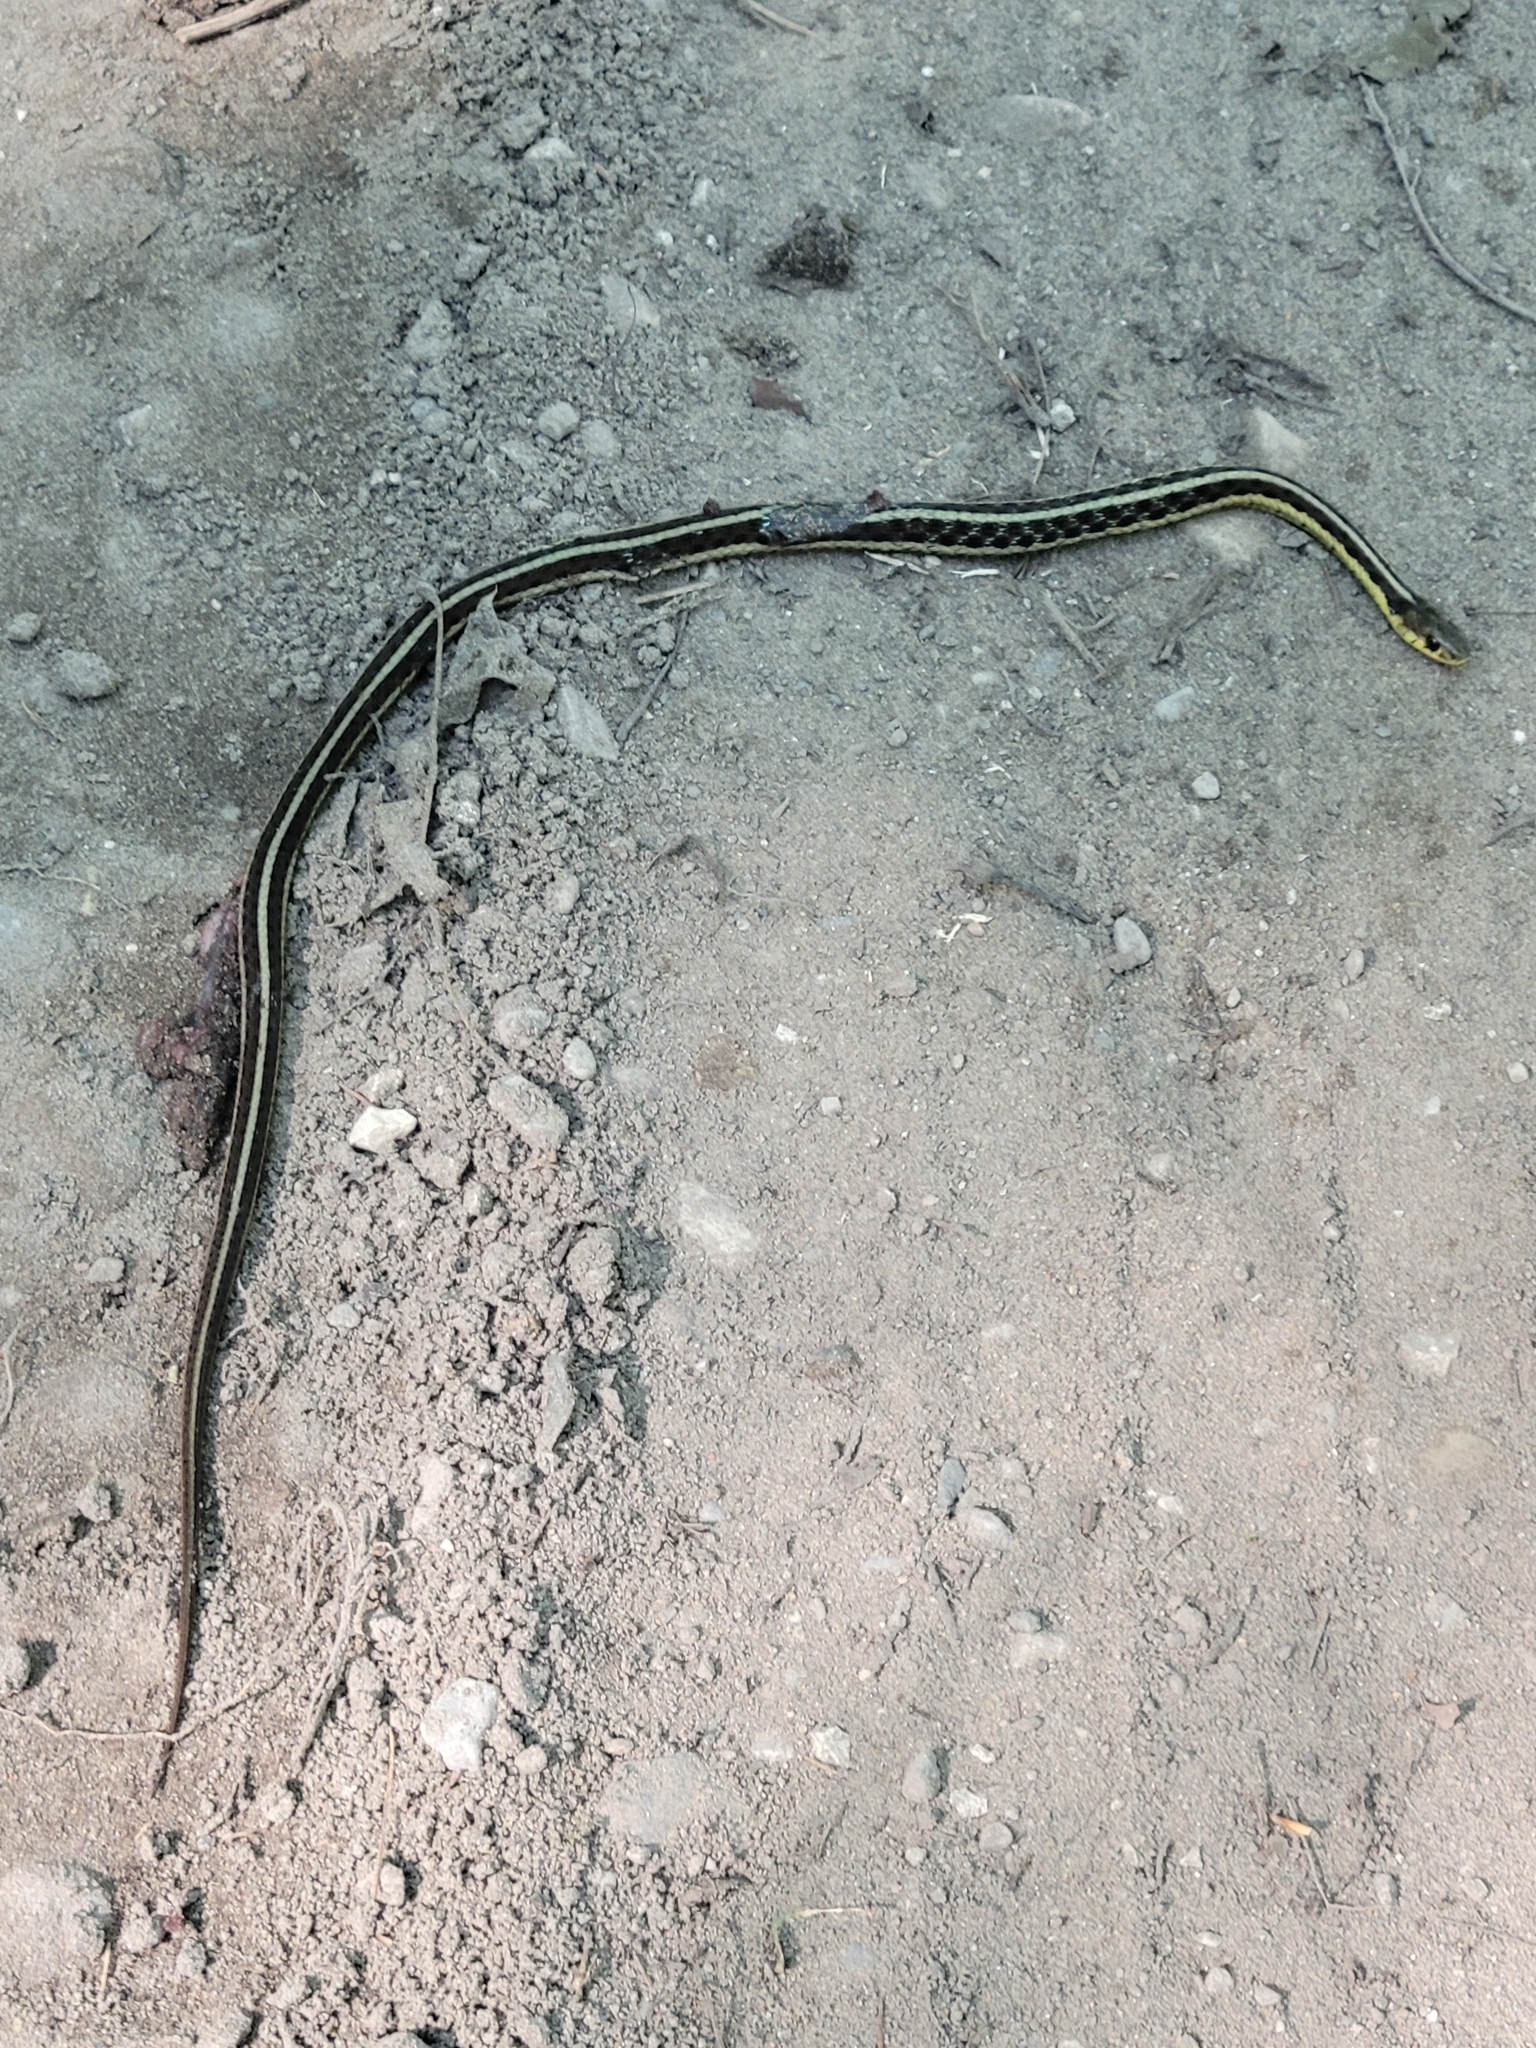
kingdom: Animalia
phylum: Chordata
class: Squamata
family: Colubridae
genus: Thamnophis
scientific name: Thamnophis sirtalis
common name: Common garter snake
